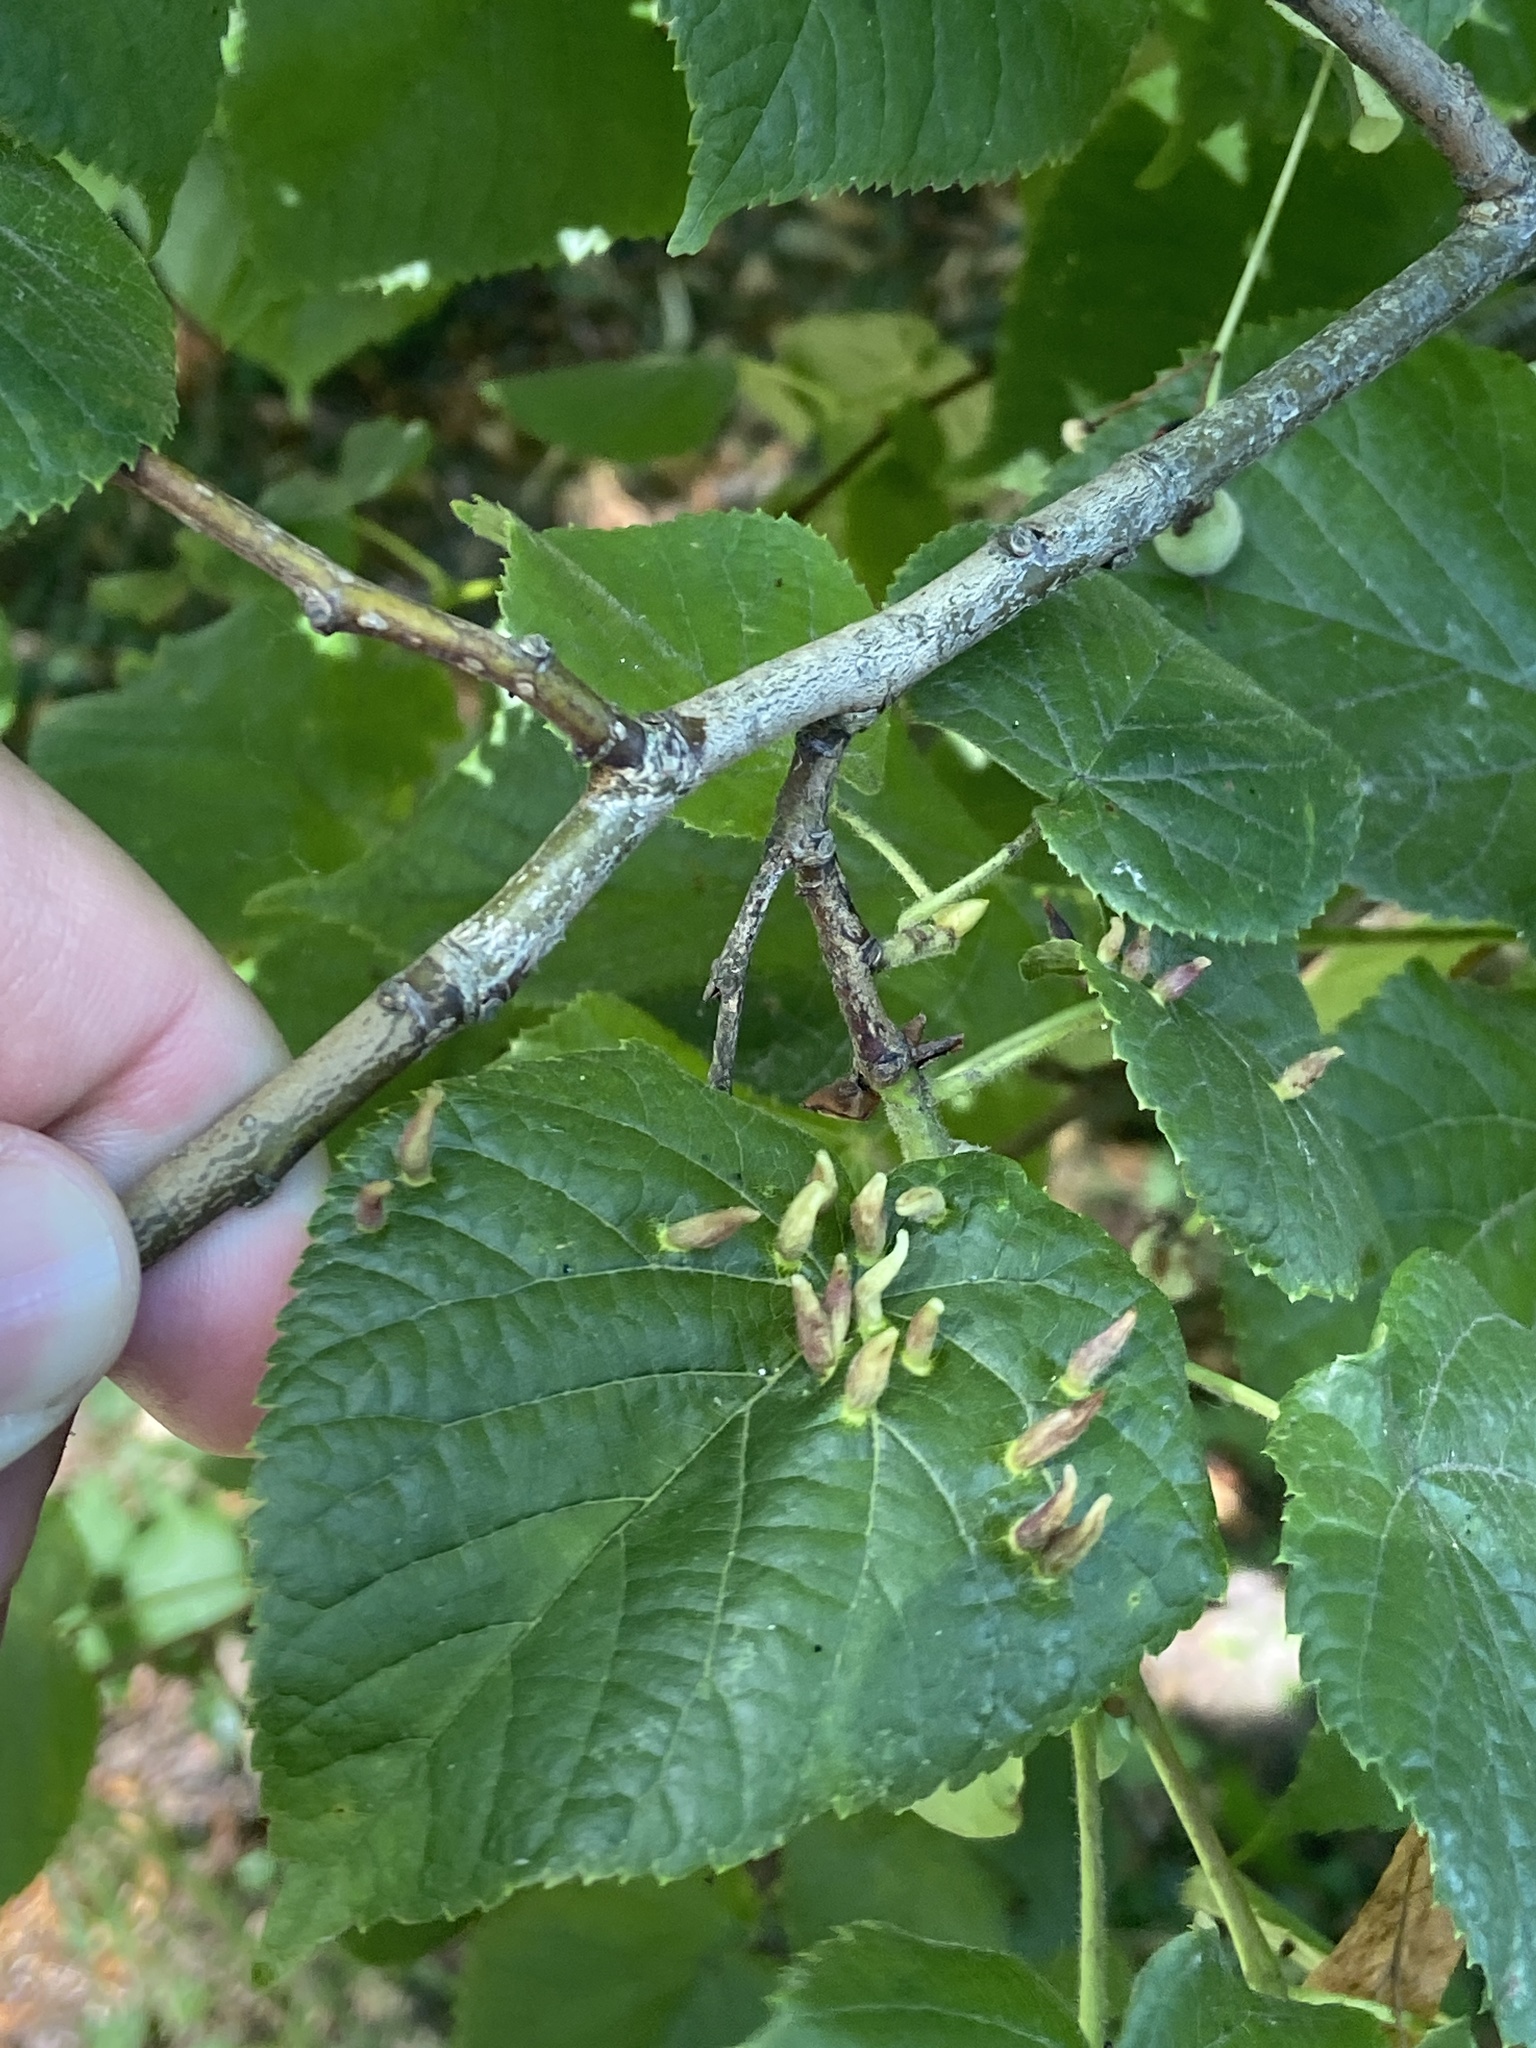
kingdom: Animalia
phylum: Arthropoda
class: Arachnida
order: Trombidiformes
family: Eriophyidae
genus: Eriophyes
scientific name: Eriophyes tiliae
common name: Red nail gall mite
